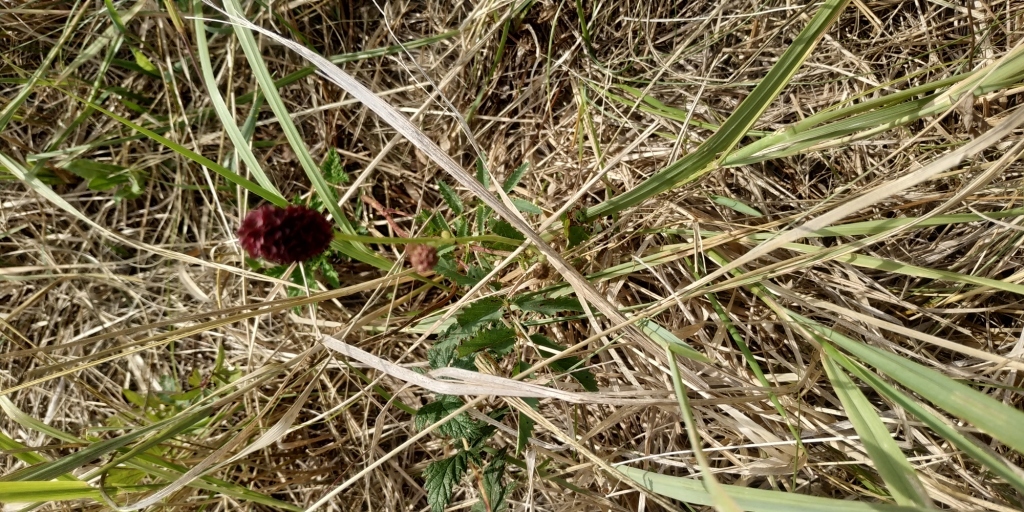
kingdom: Plantae
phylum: Tracheophyta
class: Magnoliopsida
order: Rosales
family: Rosaceae
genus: Sanguisorba
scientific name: Sanguisorba officinalis
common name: Great burnet
